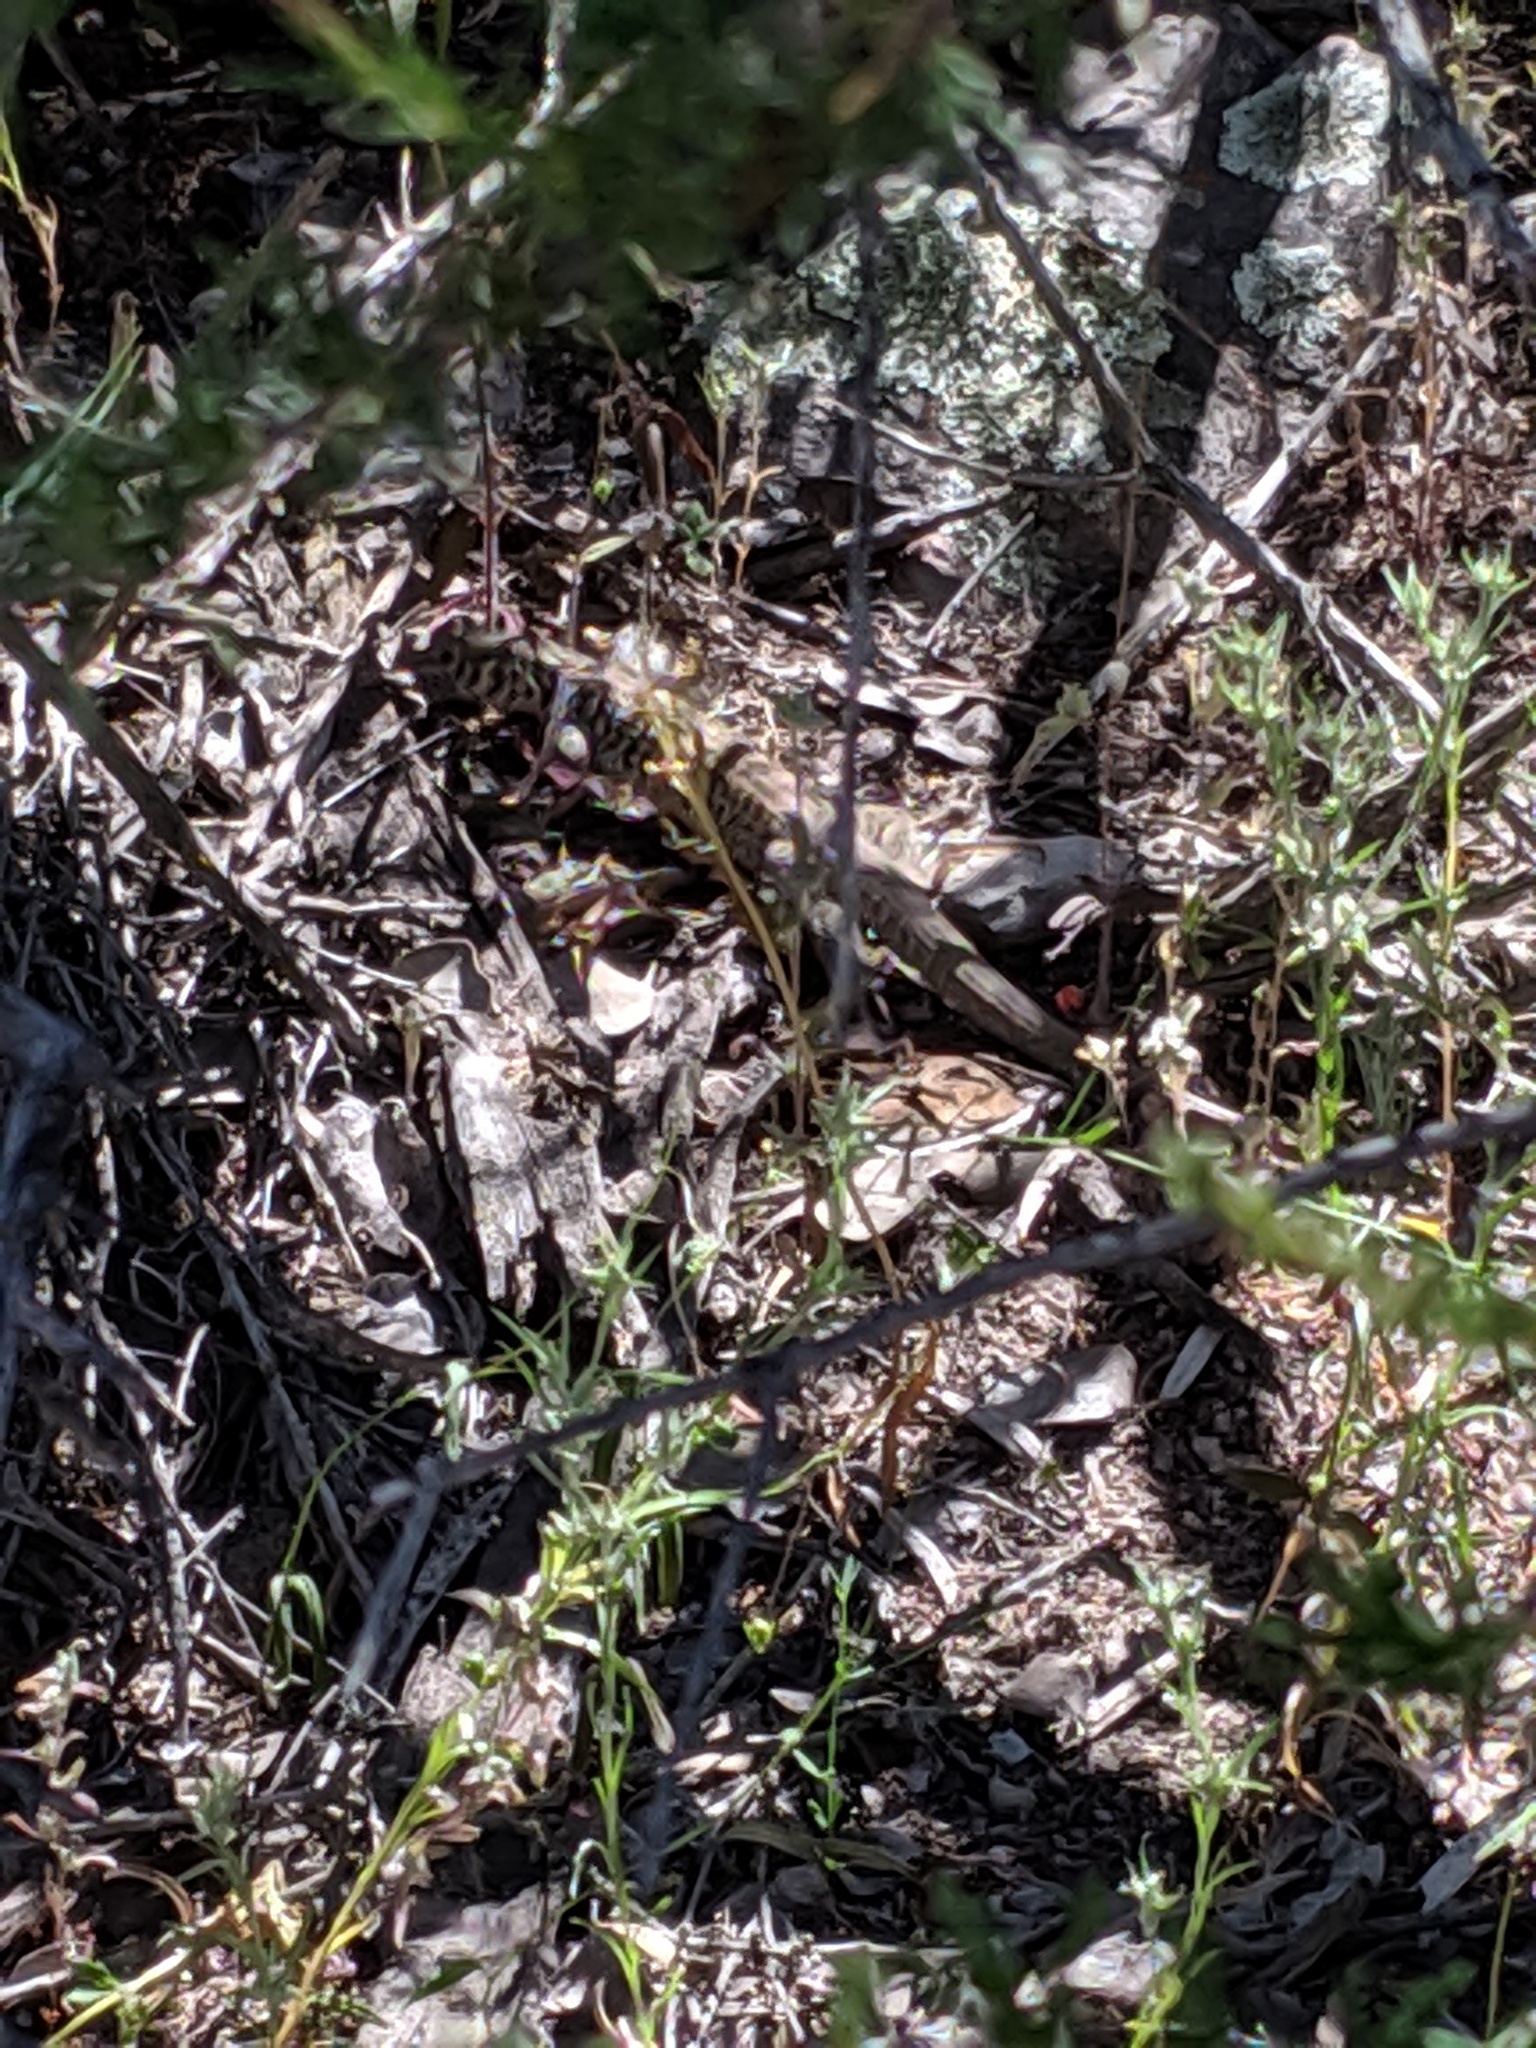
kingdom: Animalia
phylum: Chordata
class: Squamata
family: Teiidae
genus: Aspidoscelis
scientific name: Aspidoscelis tigris
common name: Tiger whiptail
